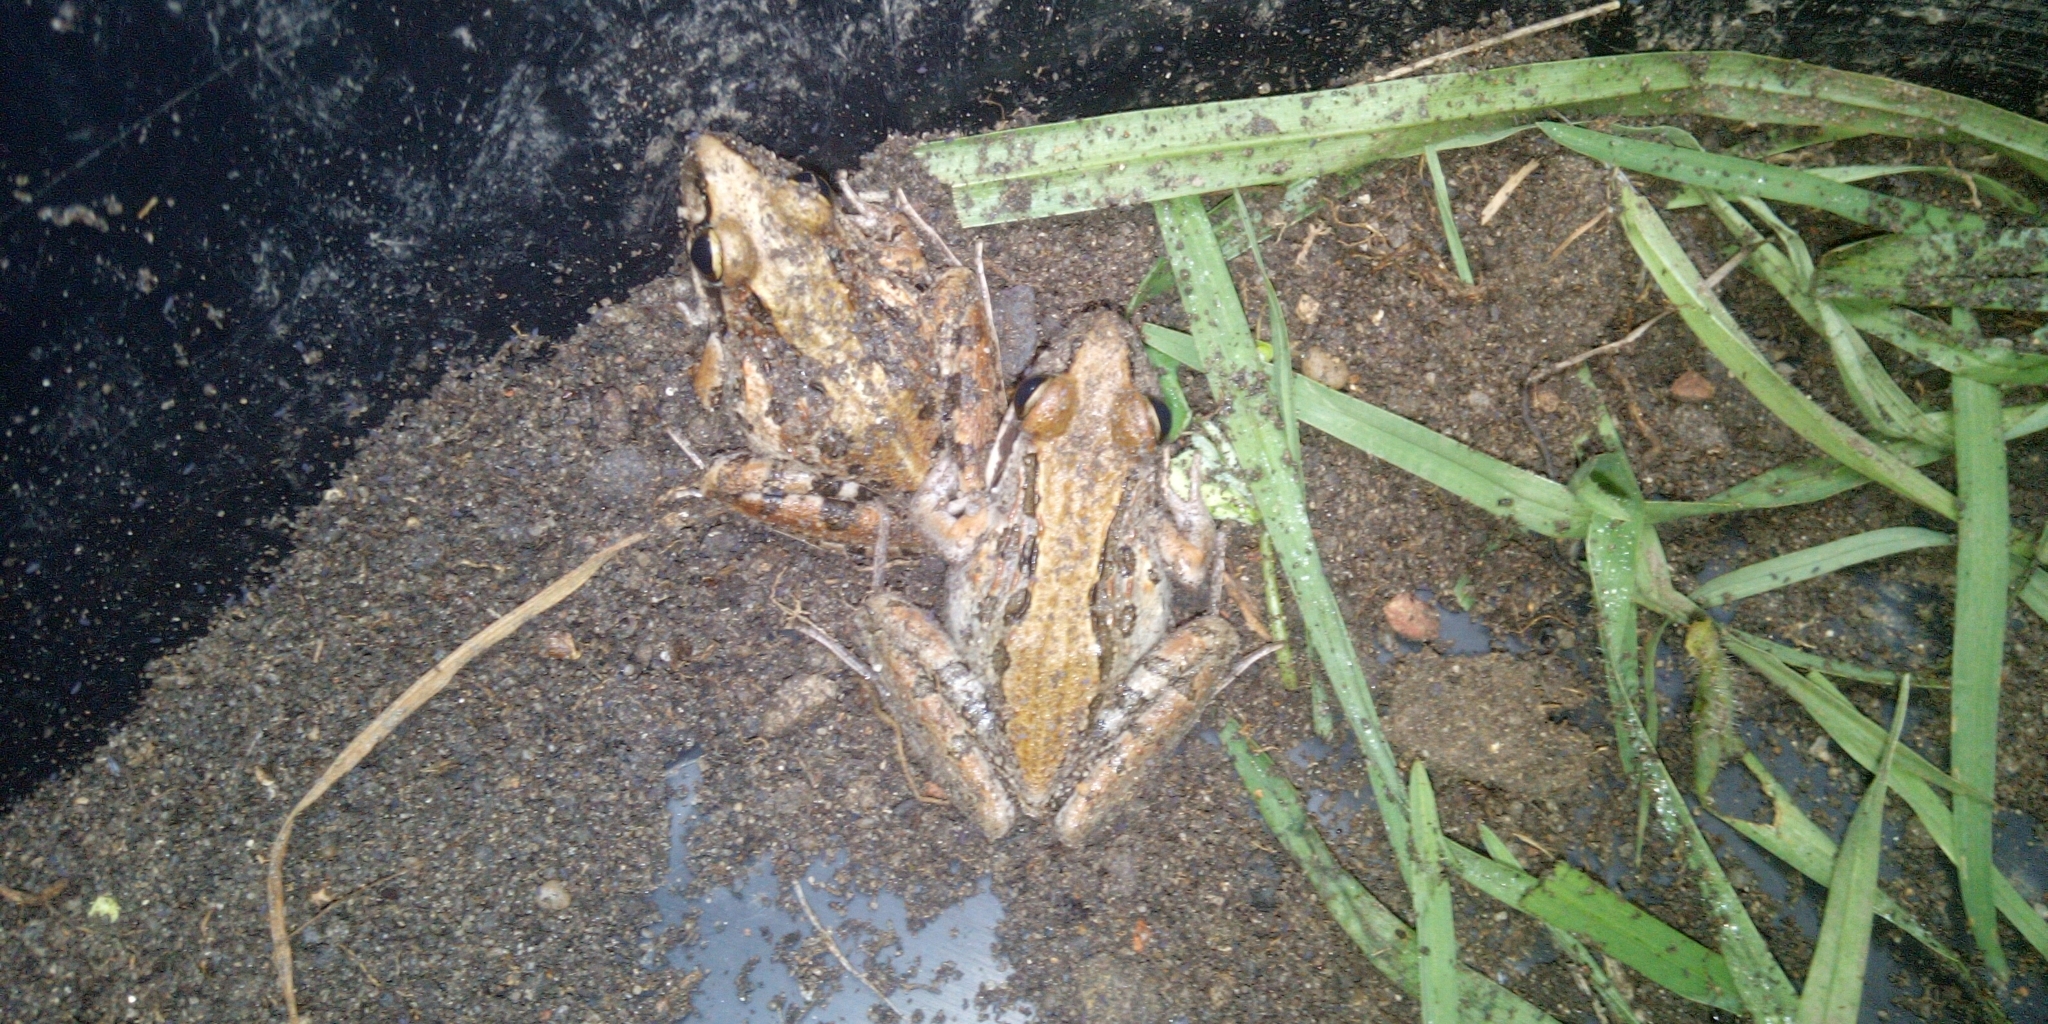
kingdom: Animalia
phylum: Chordata
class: Amphibia
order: Anura
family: Pyxicephalidae
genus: Strongylopus
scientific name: Strongylopus grayii
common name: Gray's stream frog
